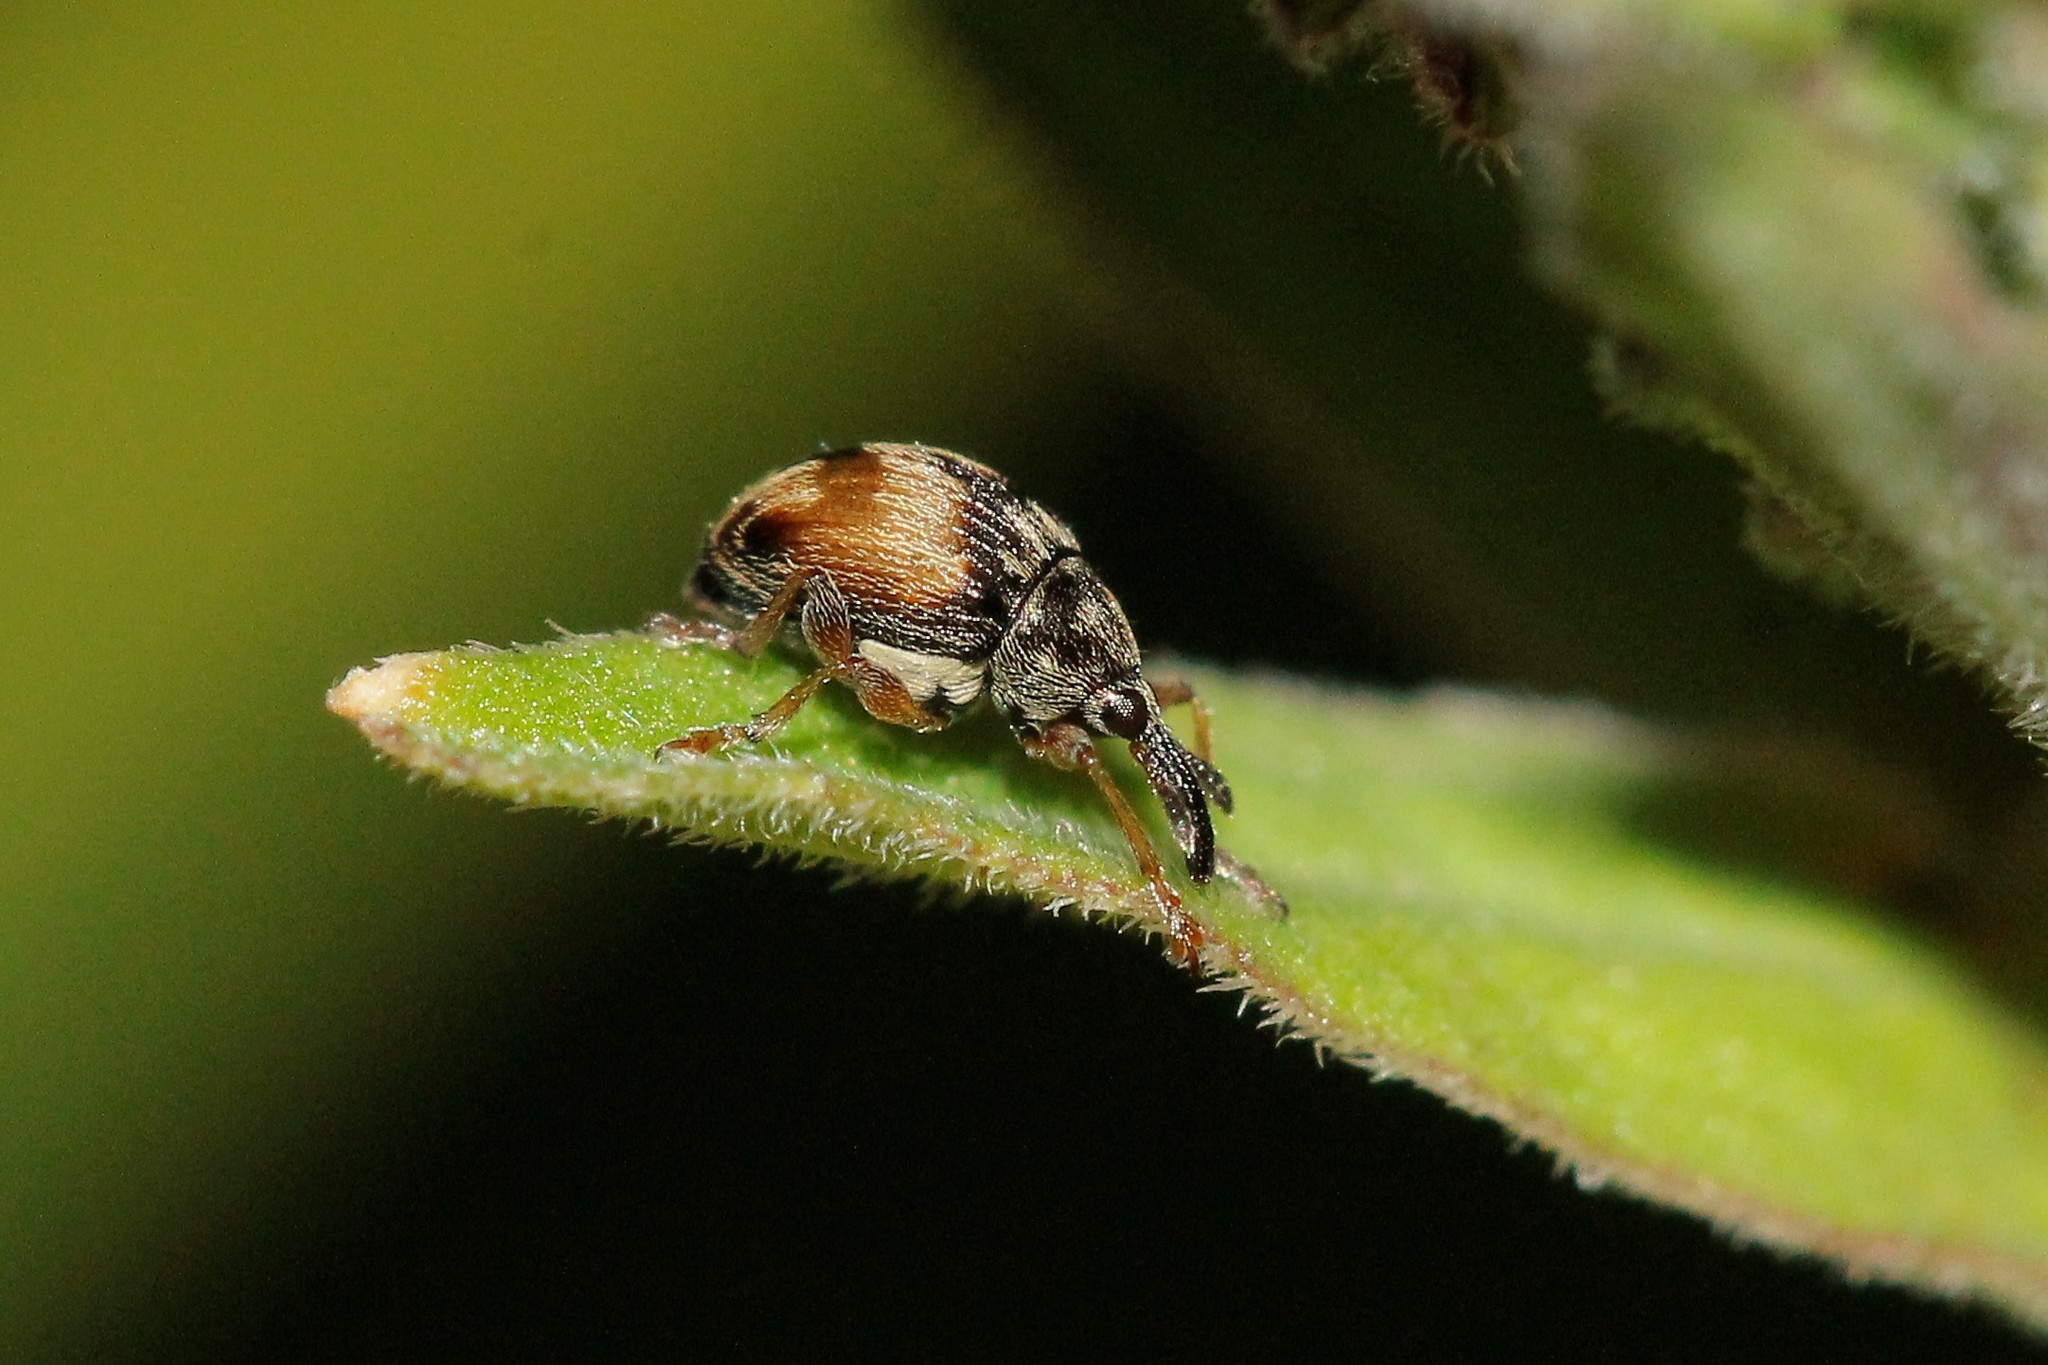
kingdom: Animalia
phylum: Arthropoda
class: Insecta
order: Coleoptera
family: Brentidae
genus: Nanophyes
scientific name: Nanophyes marmoratus
